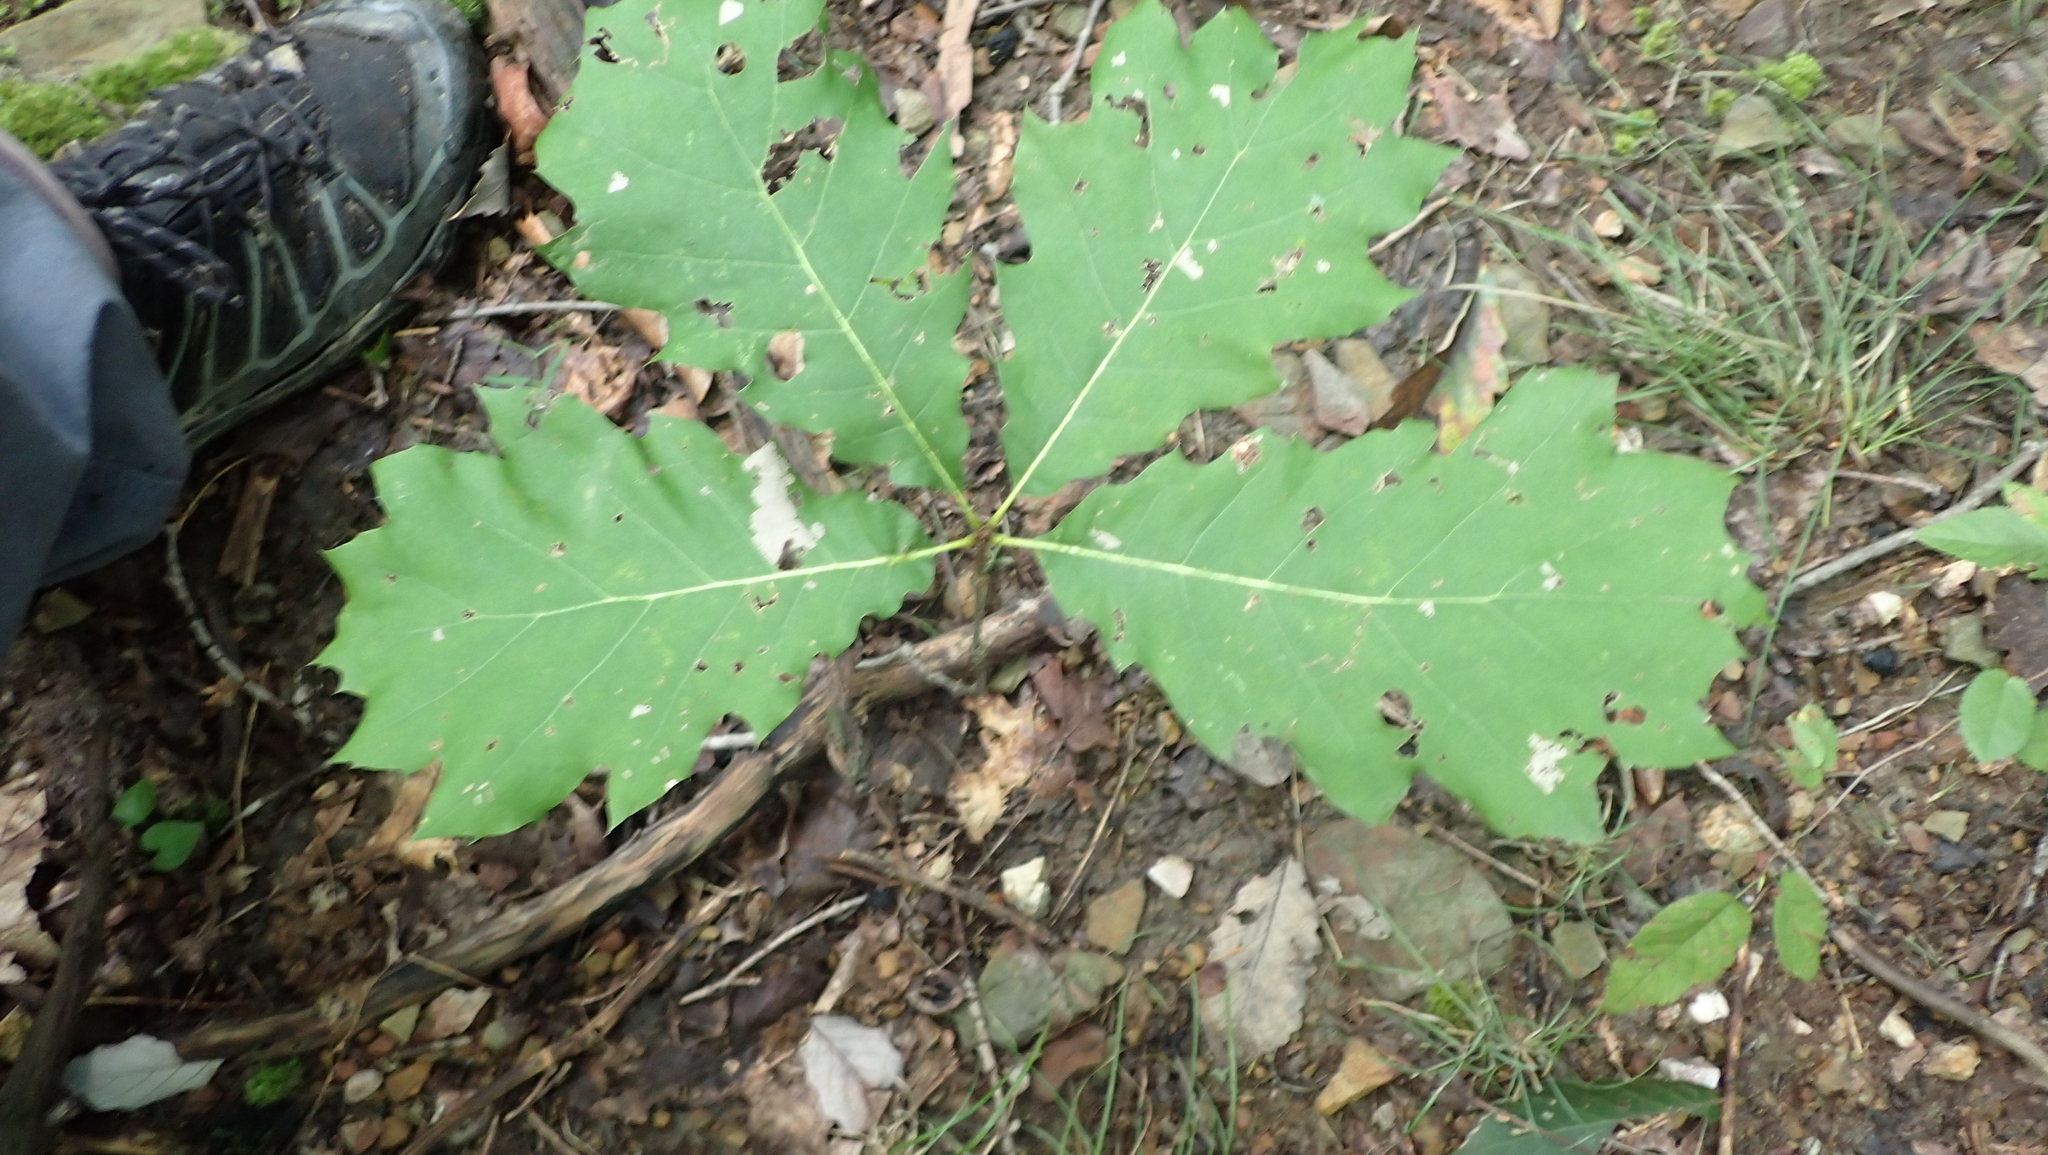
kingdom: Plantae
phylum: Tracheophyta
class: Magnoliopsida
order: Fagales
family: Fagaceae
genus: Quercus
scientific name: Quercus rubra
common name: Red oak
